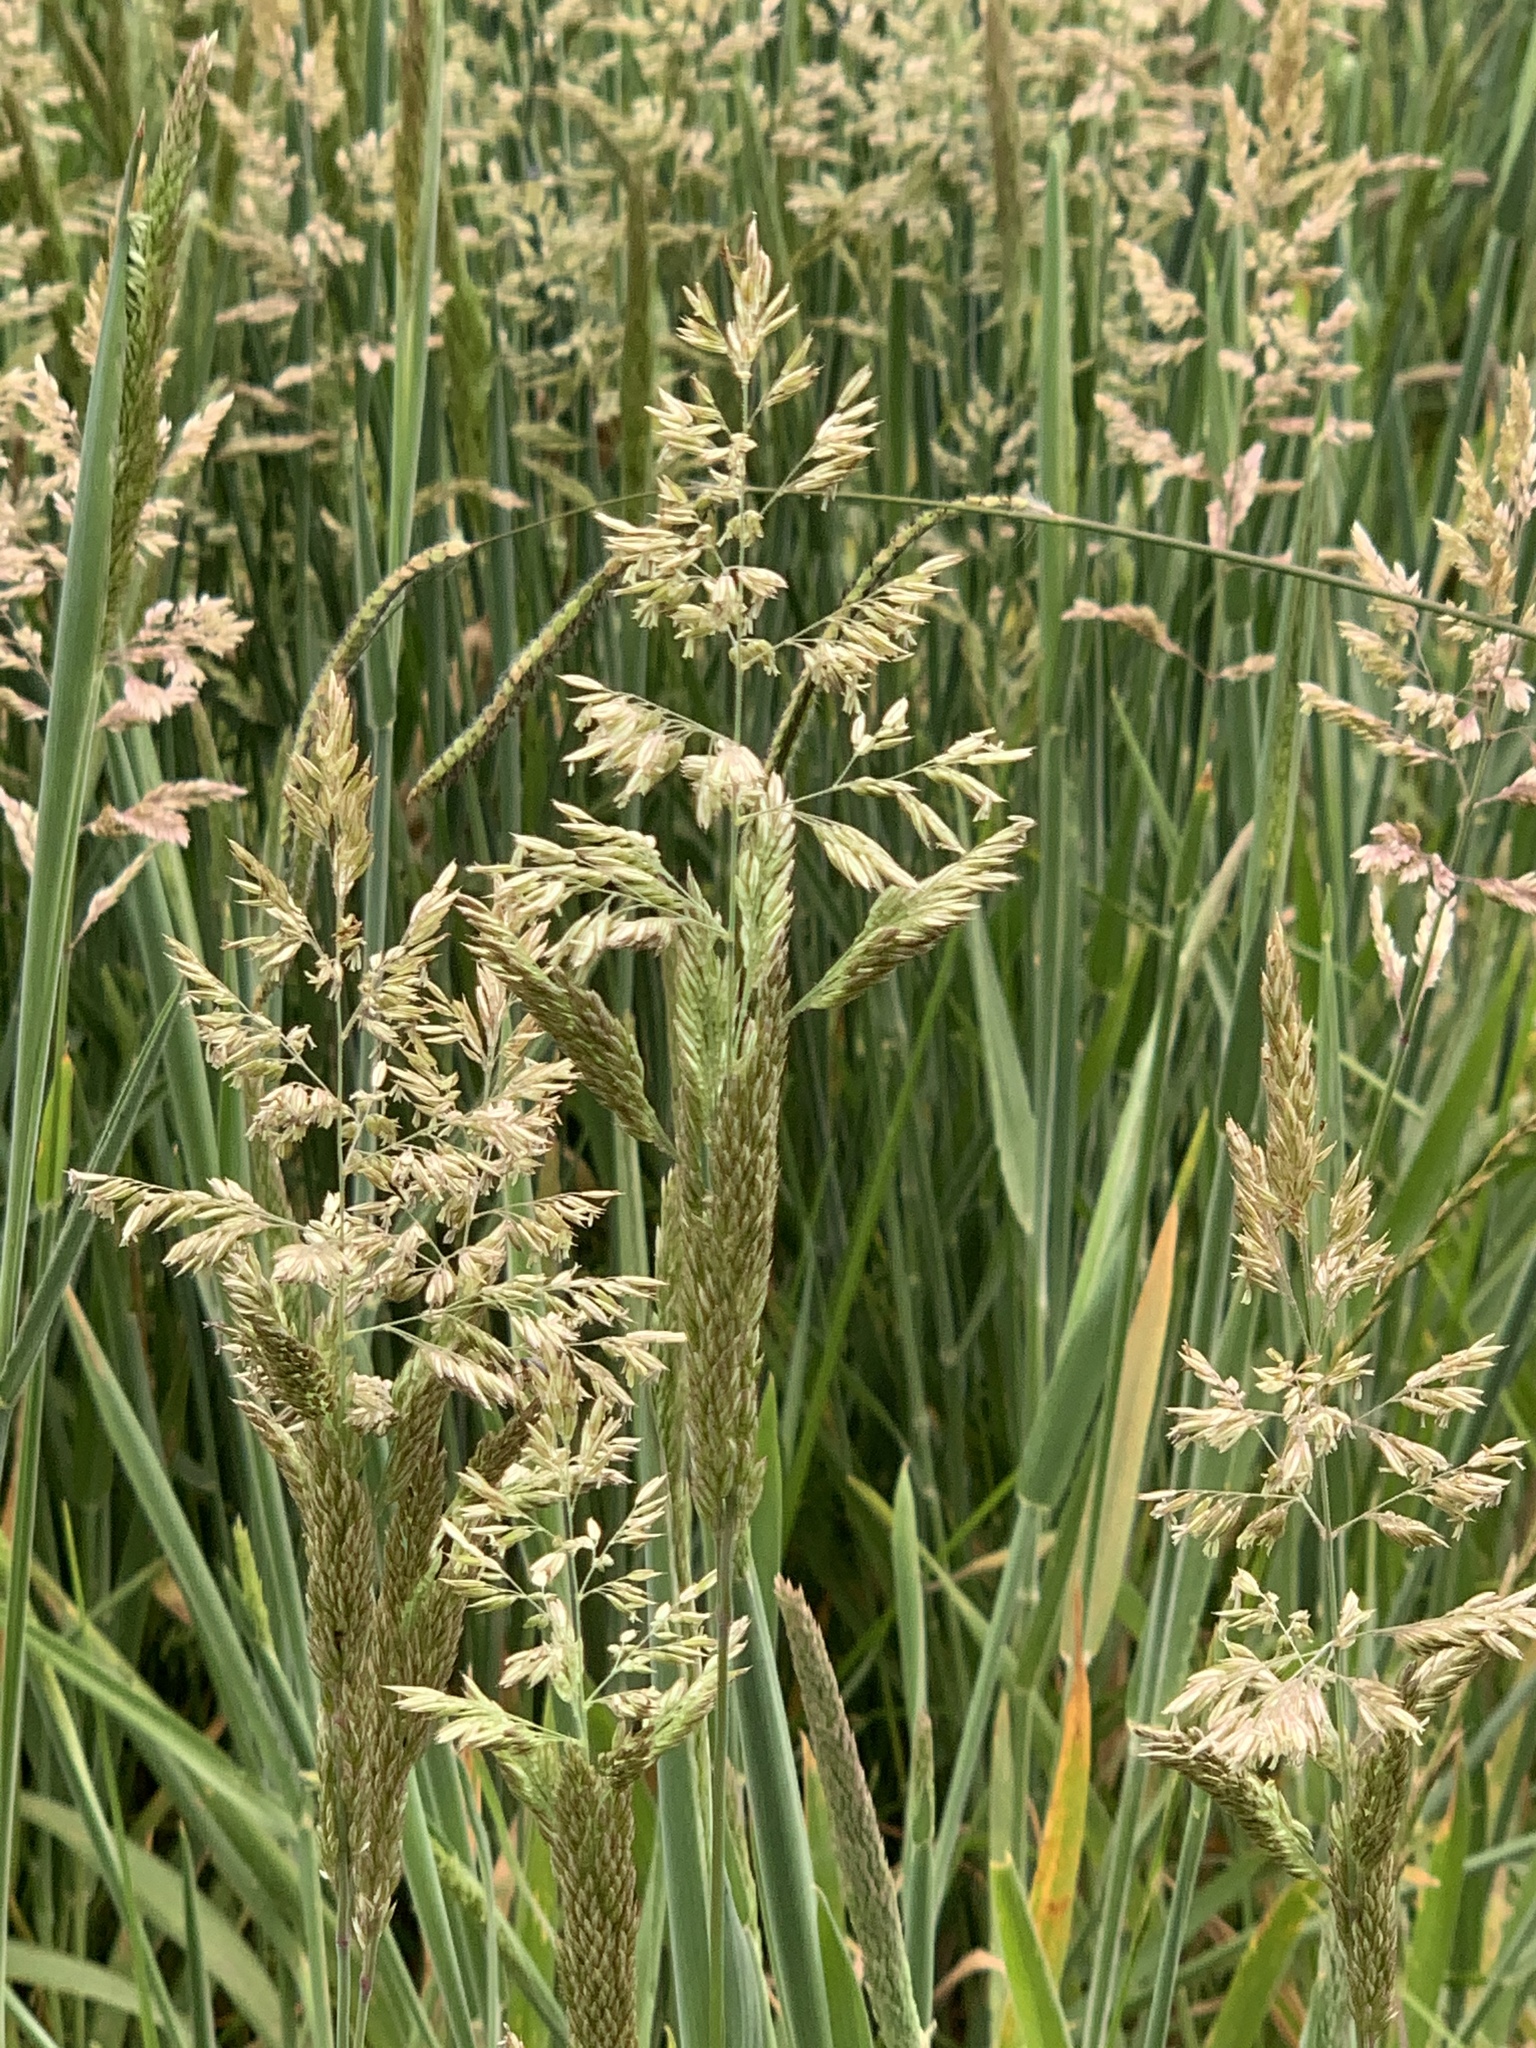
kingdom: Plantae
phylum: Tracheophyta
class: Liliopsida
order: Poales
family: Poaceae
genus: Holcus
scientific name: Holcus lanatus
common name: Yorkshire-fog
